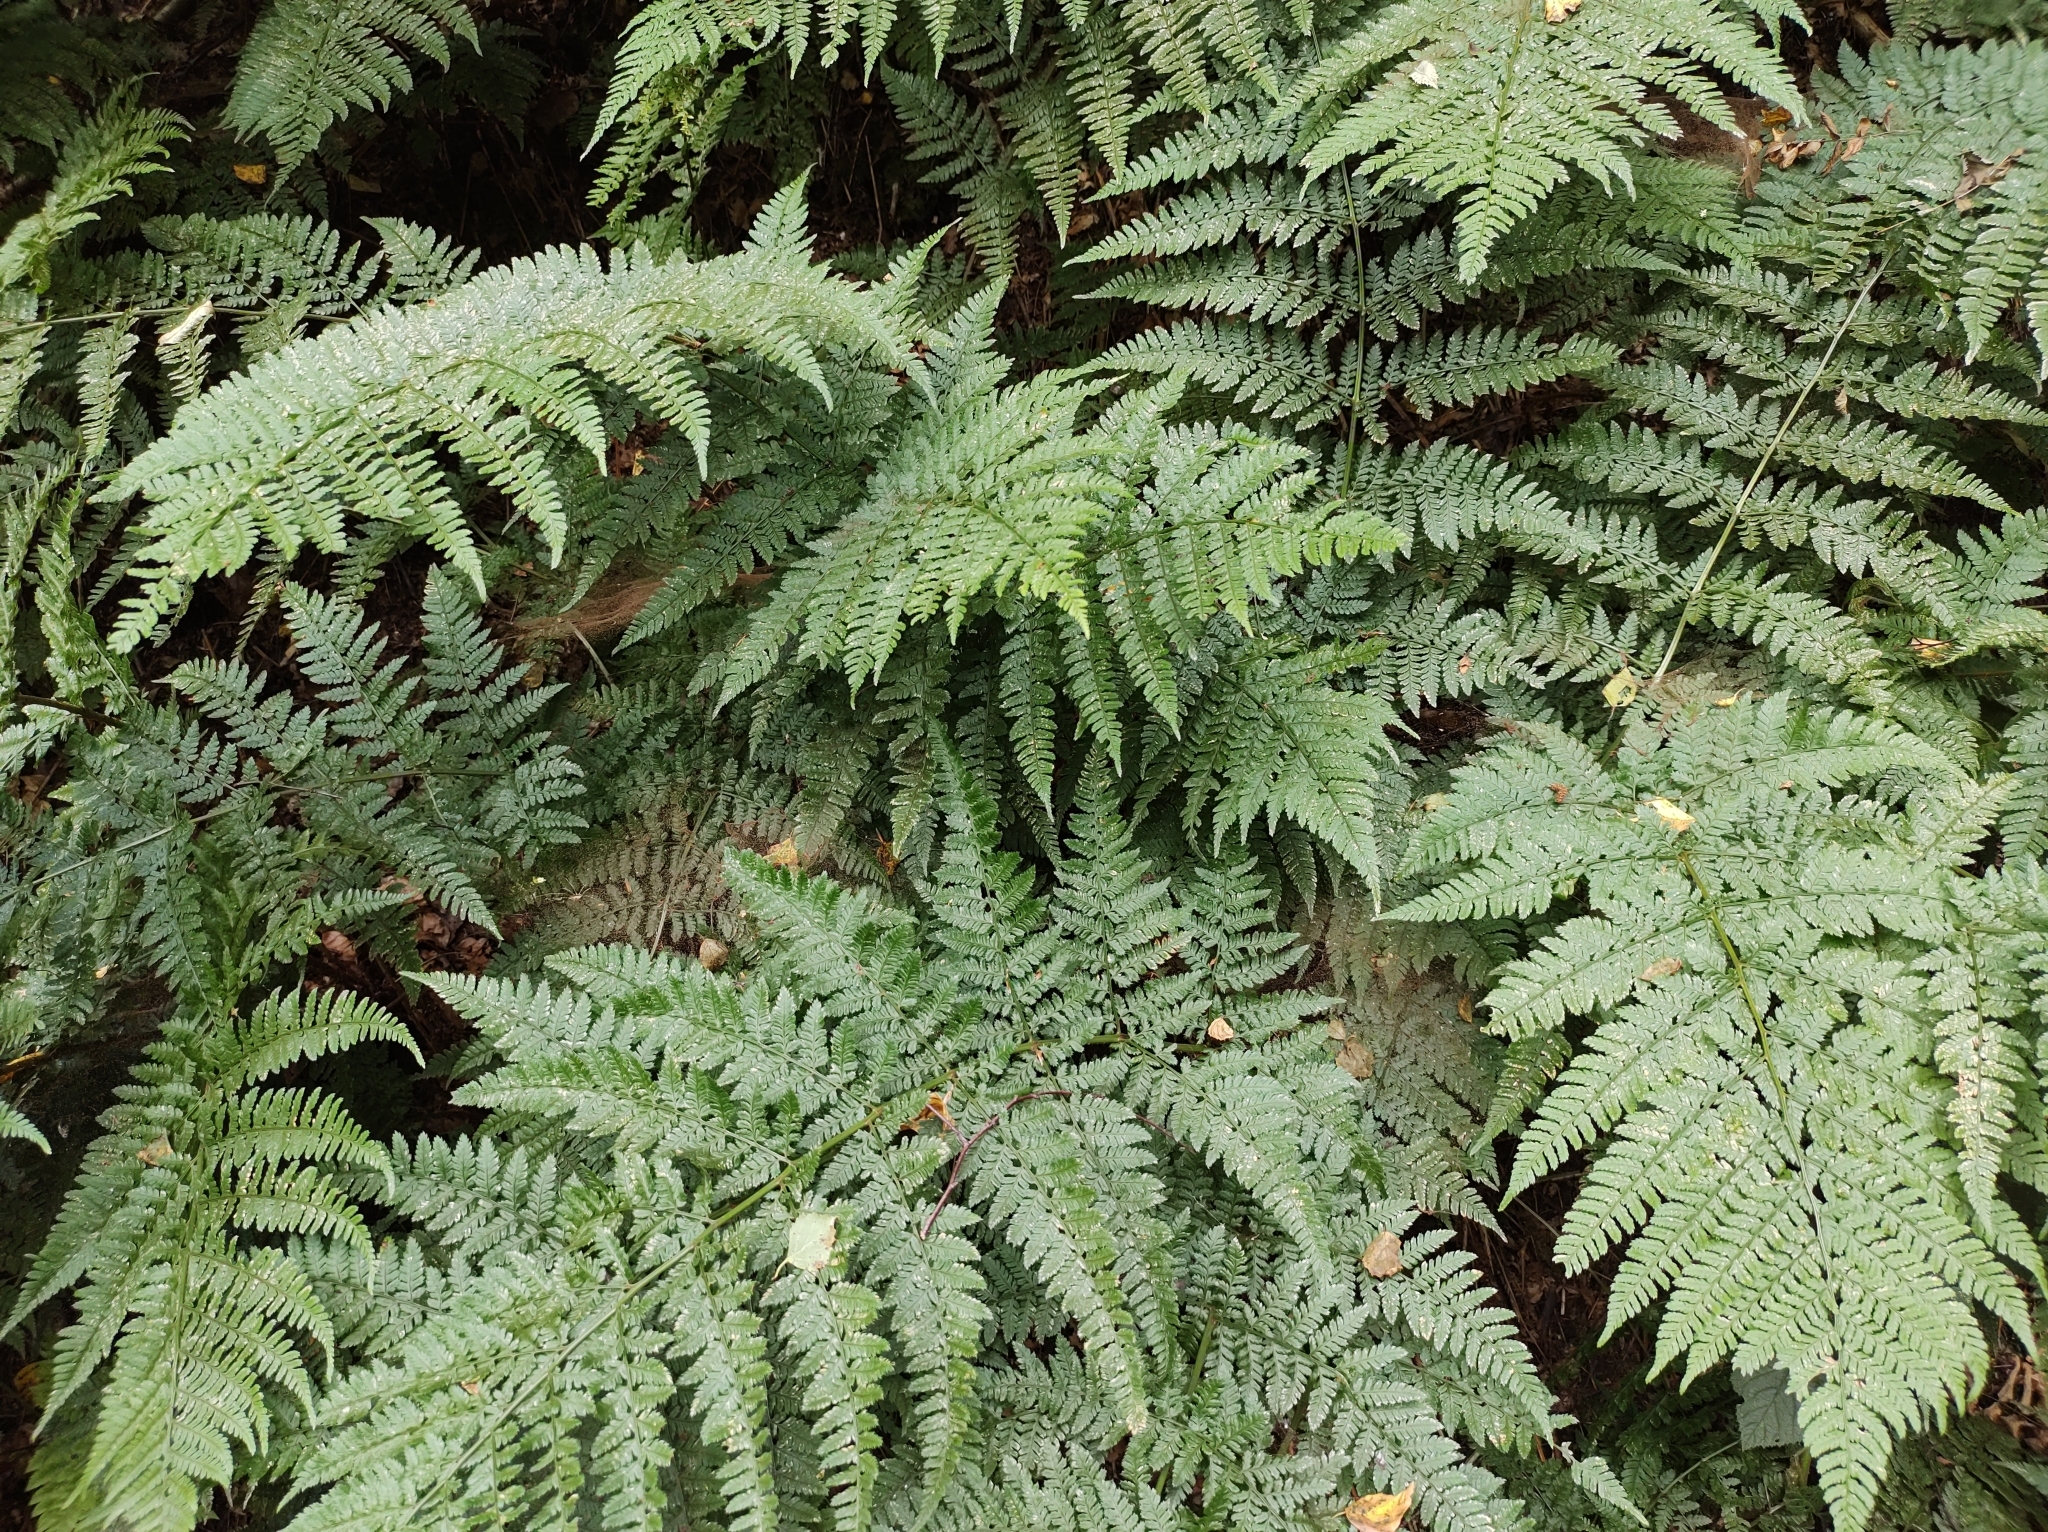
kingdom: Animalia
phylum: Arthropoda
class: Arachnida
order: Opiliones
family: Phalangiidae
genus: Mitopus
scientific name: Mitopus morio
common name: Saddleback harvestman
